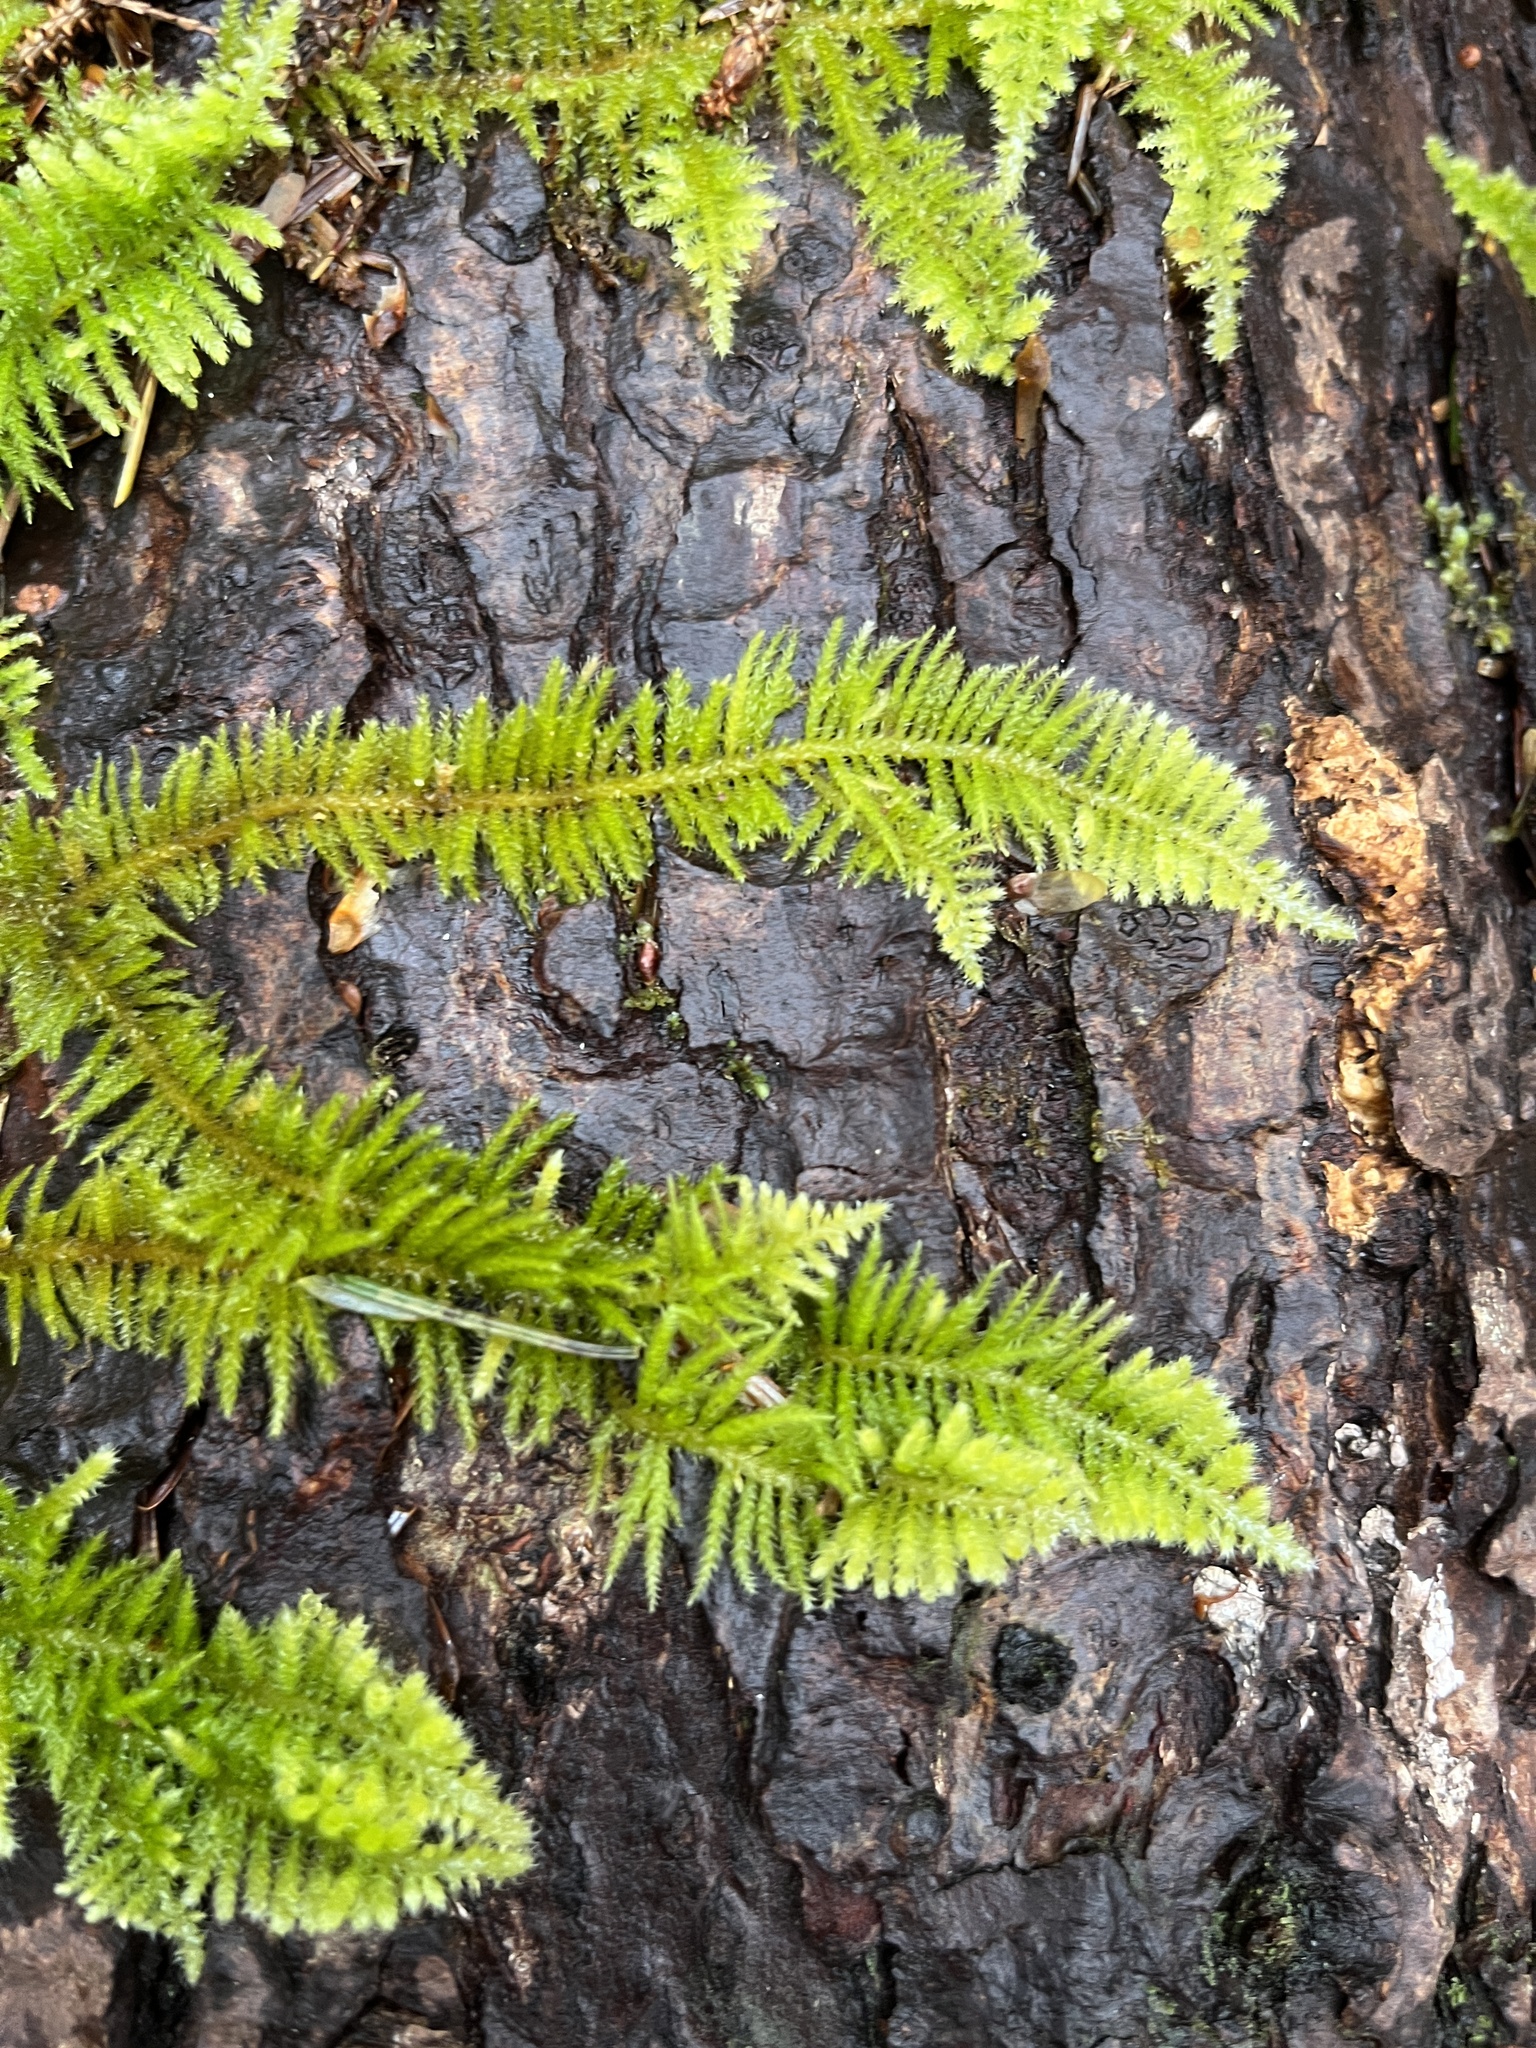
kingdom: Plantae
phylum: Bryophyta
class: Bryopsida
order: Hypnales
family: Brachytheciaceae
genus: Kindbergia
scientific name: Kindbergia oregana
